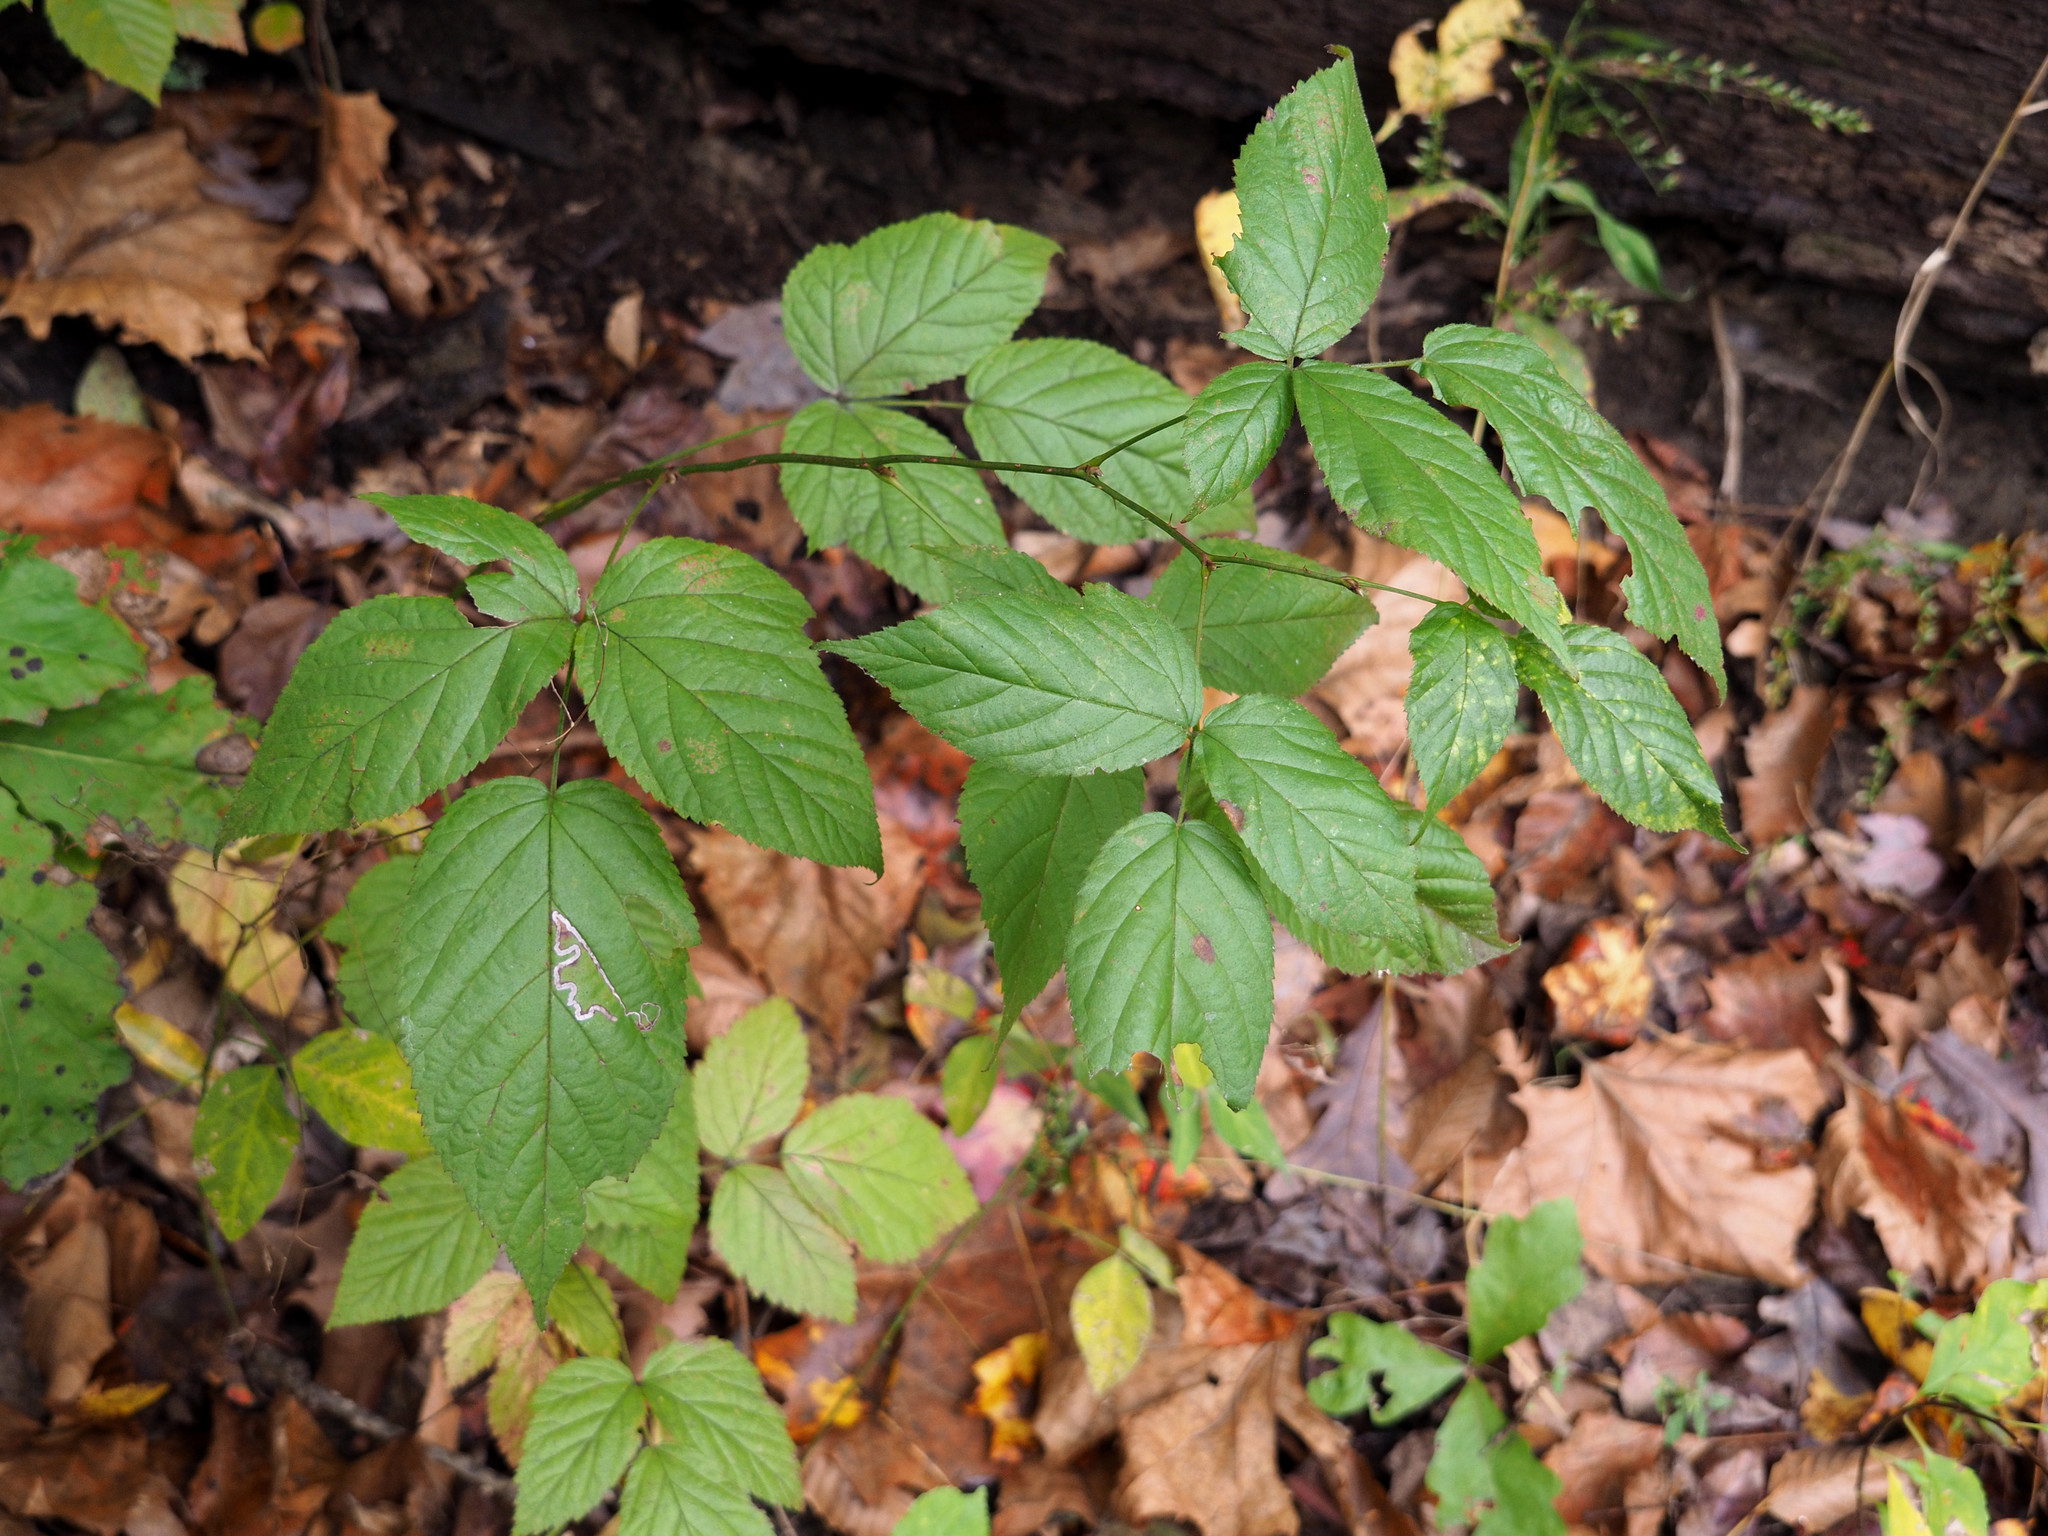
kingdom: Animalia
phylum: Arthropoda
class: Insecta
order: Lepidoptera
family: Nepticulidae
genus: Stigmella
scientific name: Stigmella villosella
